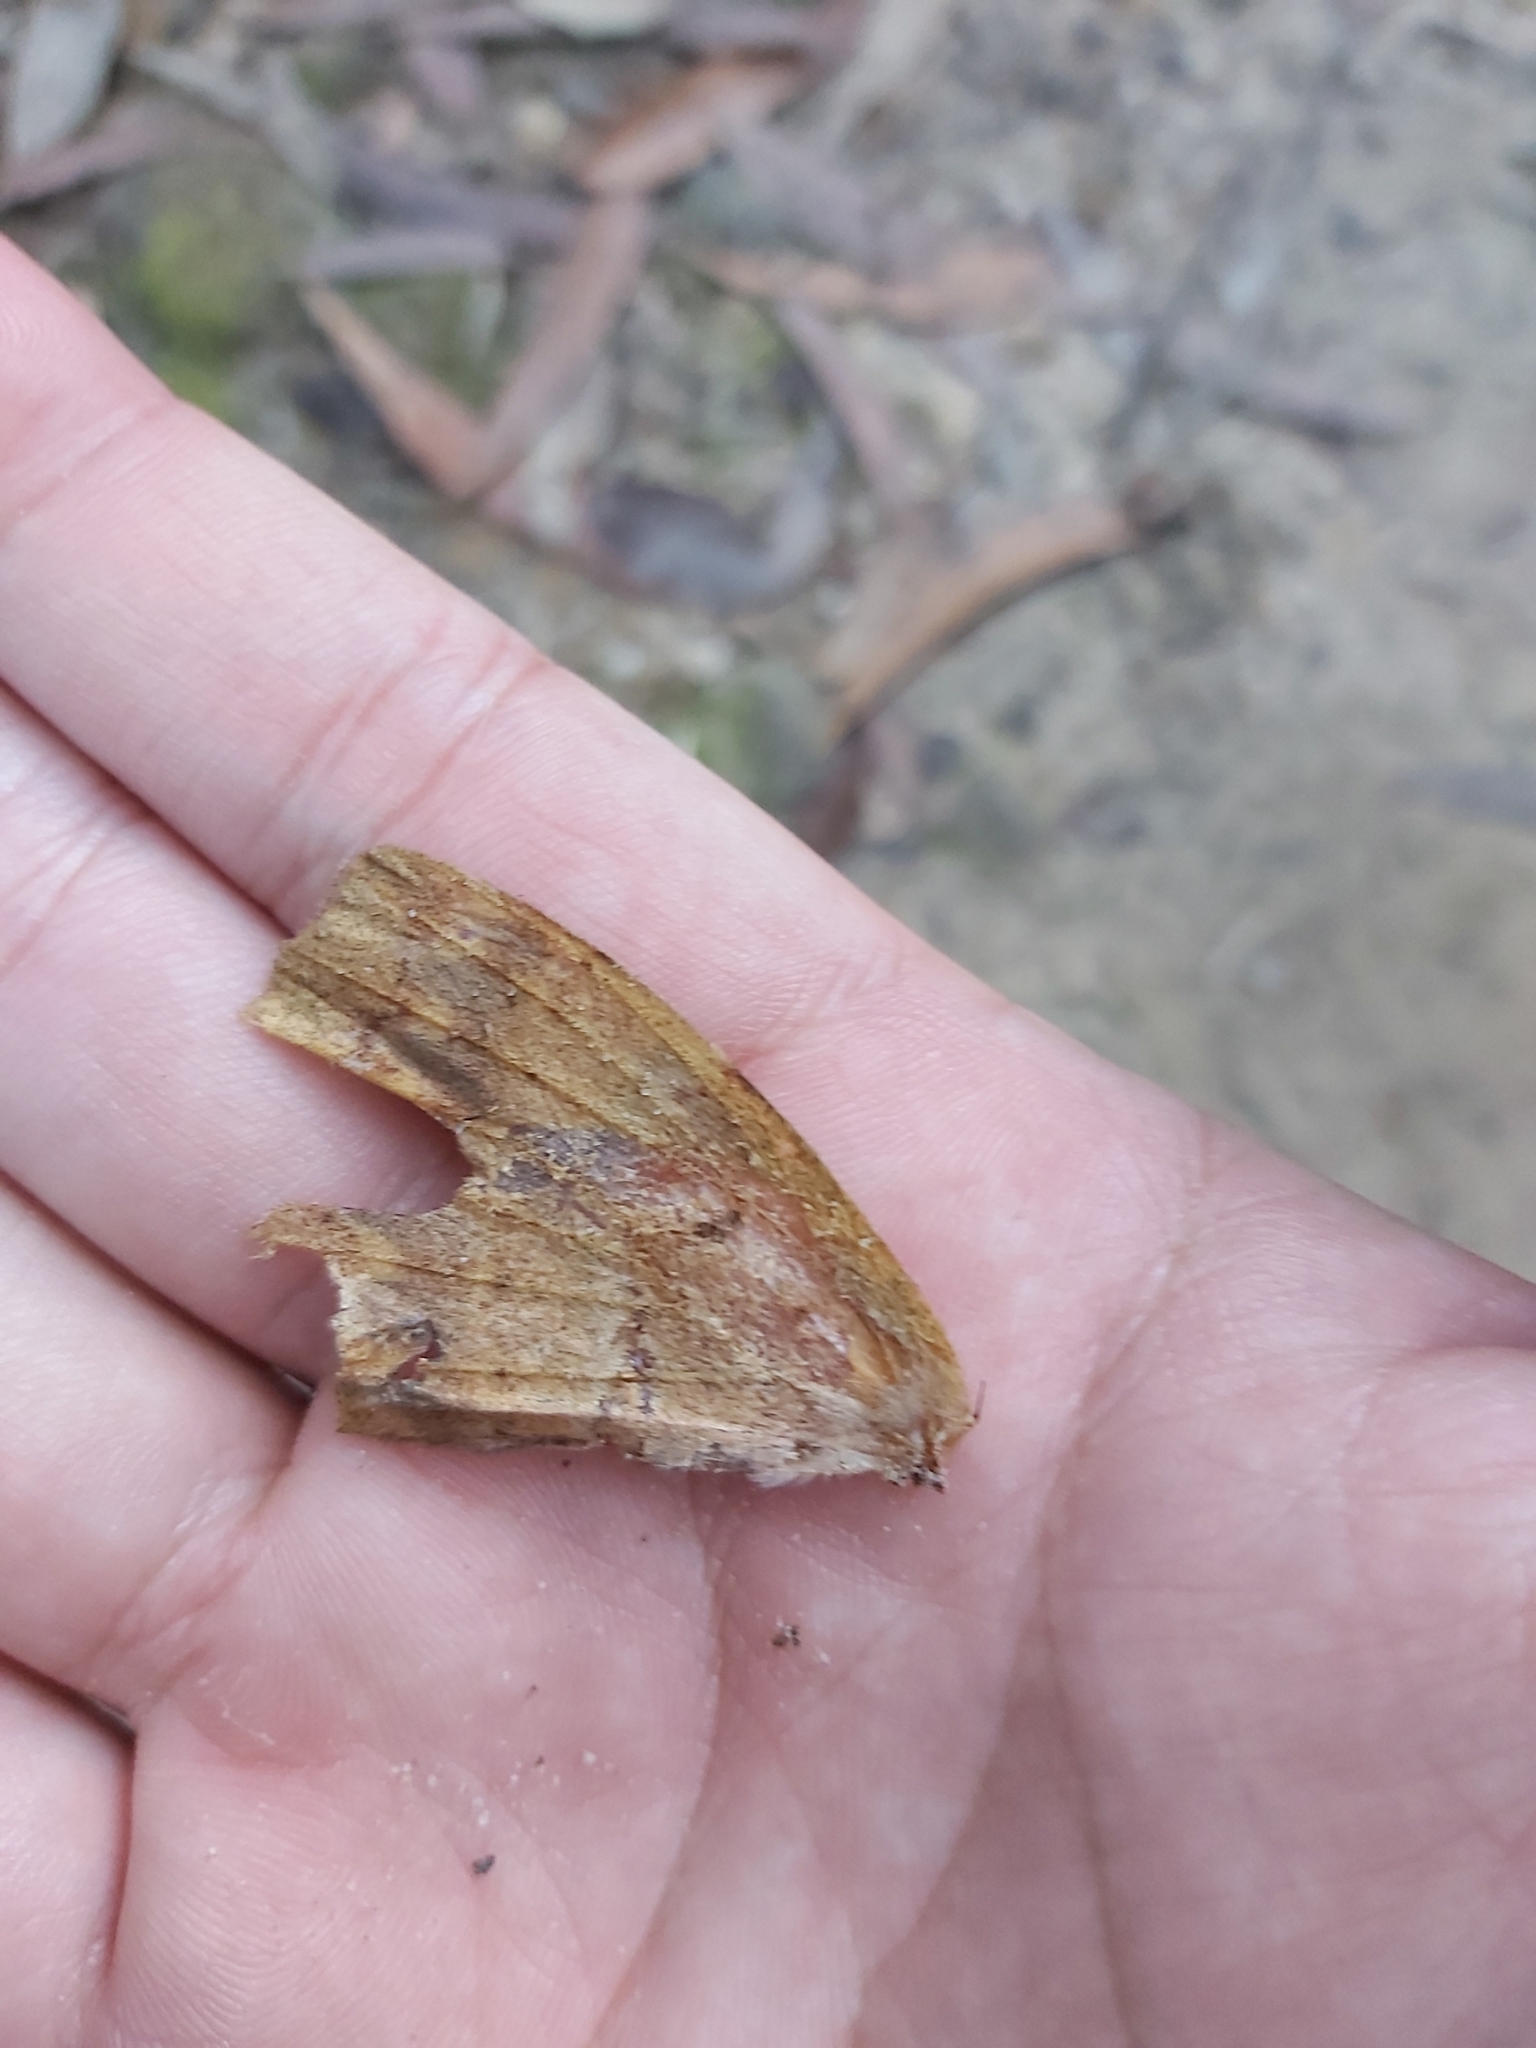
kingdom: Animalia
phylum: Arthropoda
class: Insecta
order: Lepidoptera
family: Anthelidae
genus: Chelepteryx
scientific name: Chelepteryx chalepteryx
